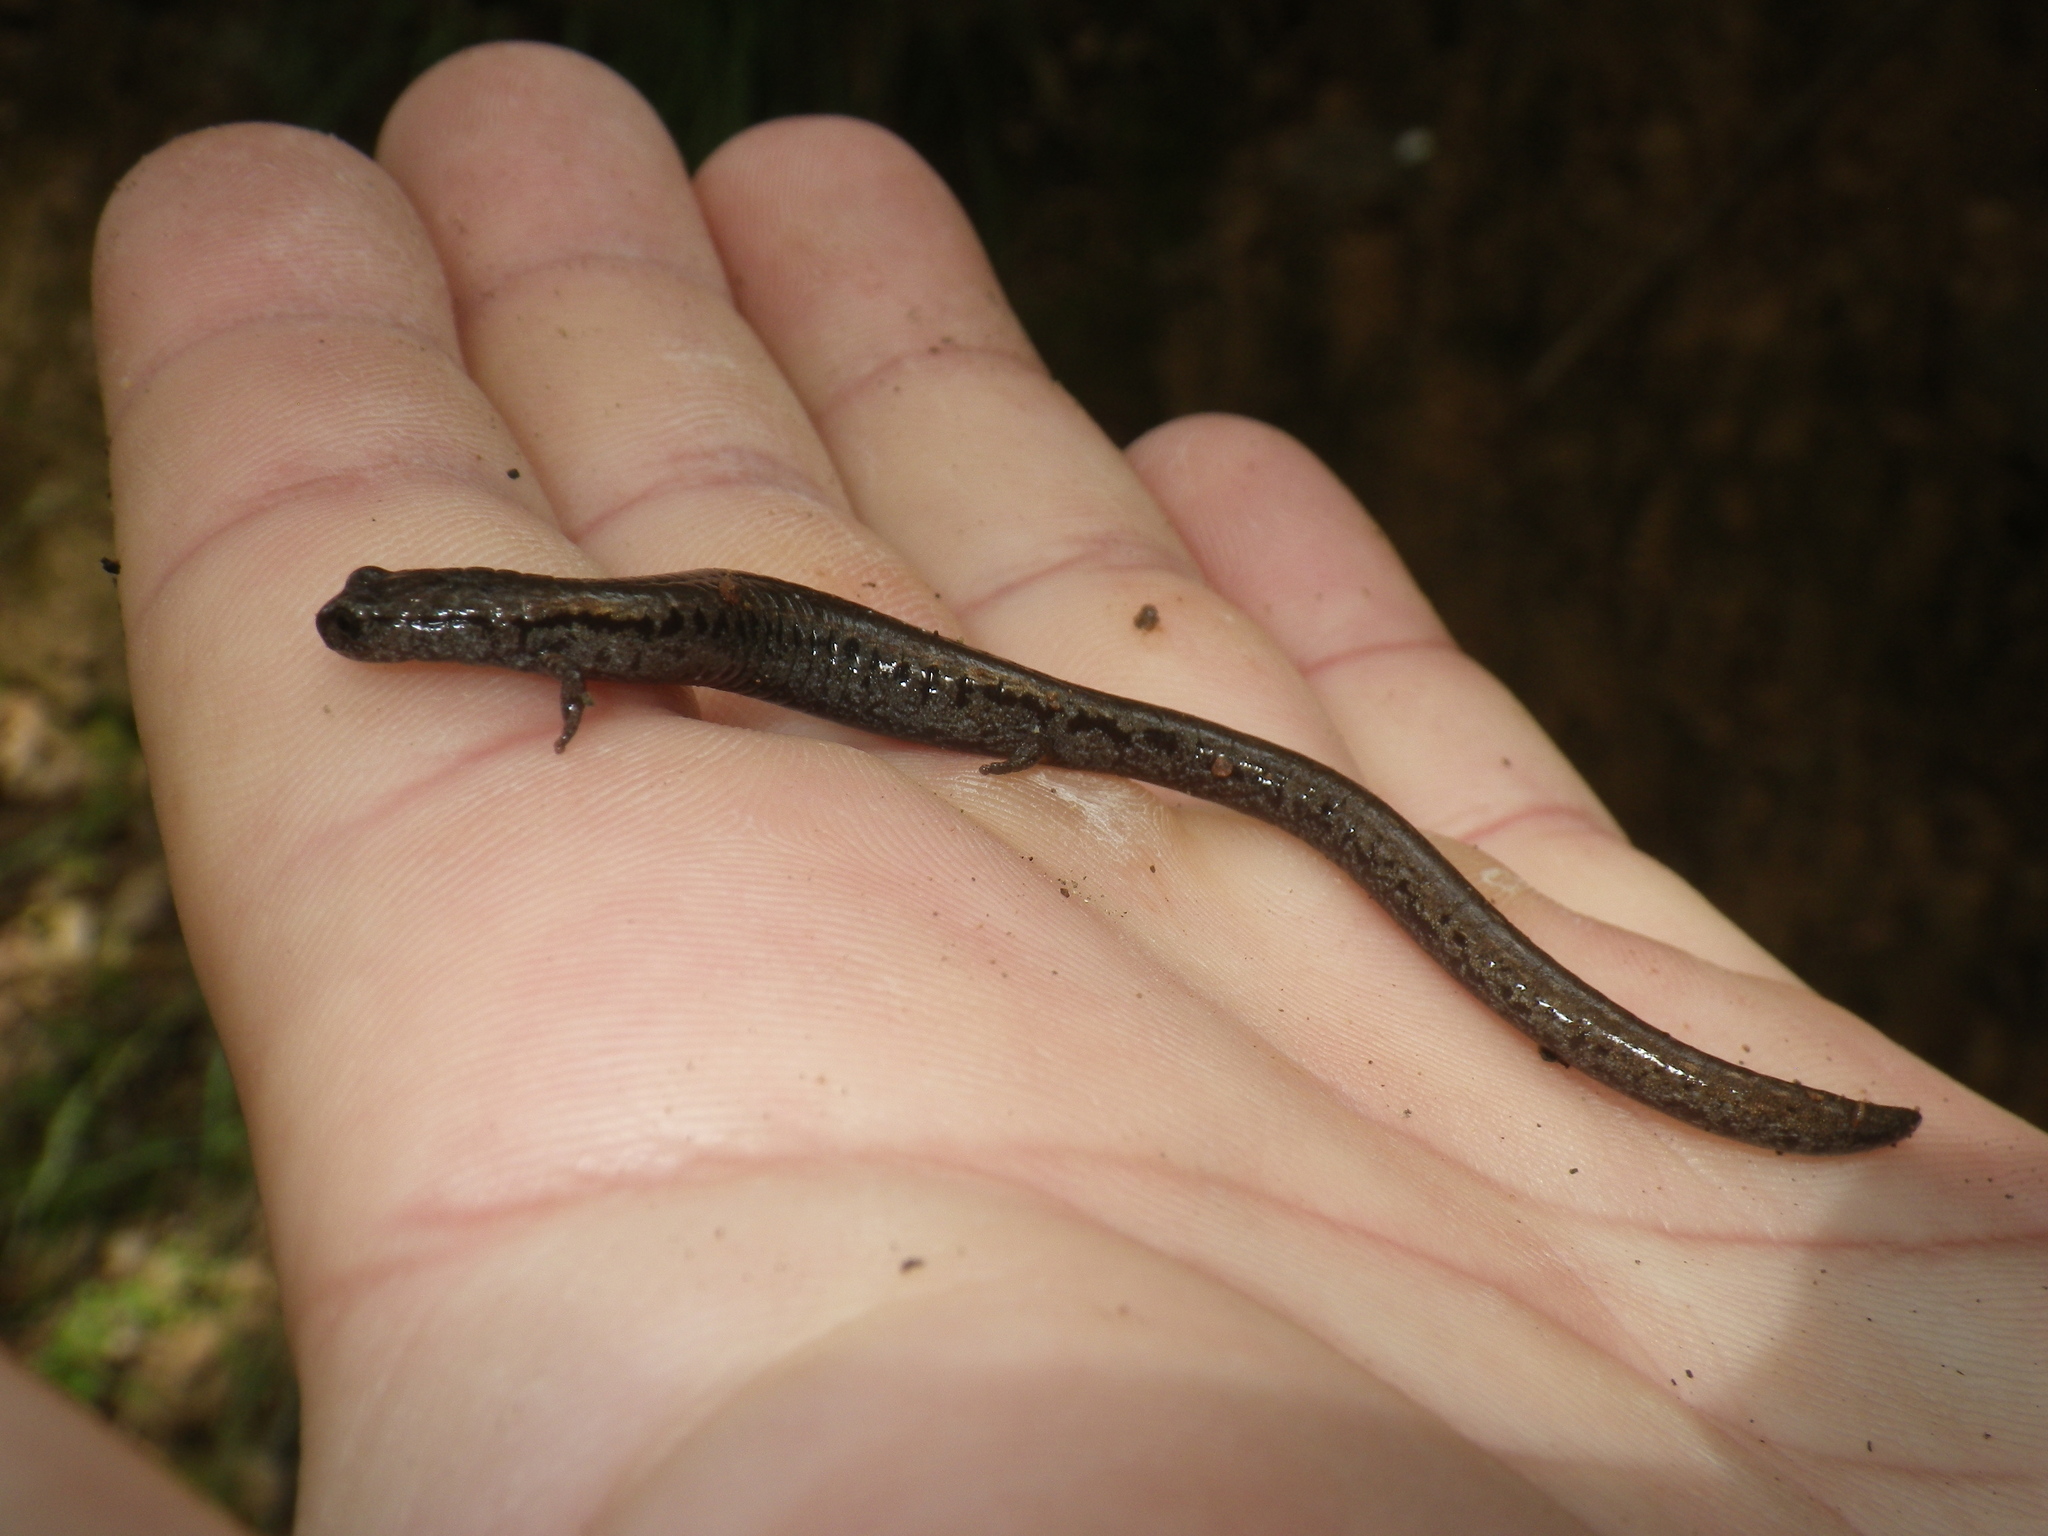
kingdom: Animalia
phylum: Chordata
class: Amphibia
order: Caudata
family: Plethodontidae
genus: Batrachoseps
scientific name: Batrachoseps attenuatus
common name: California slender salamander
